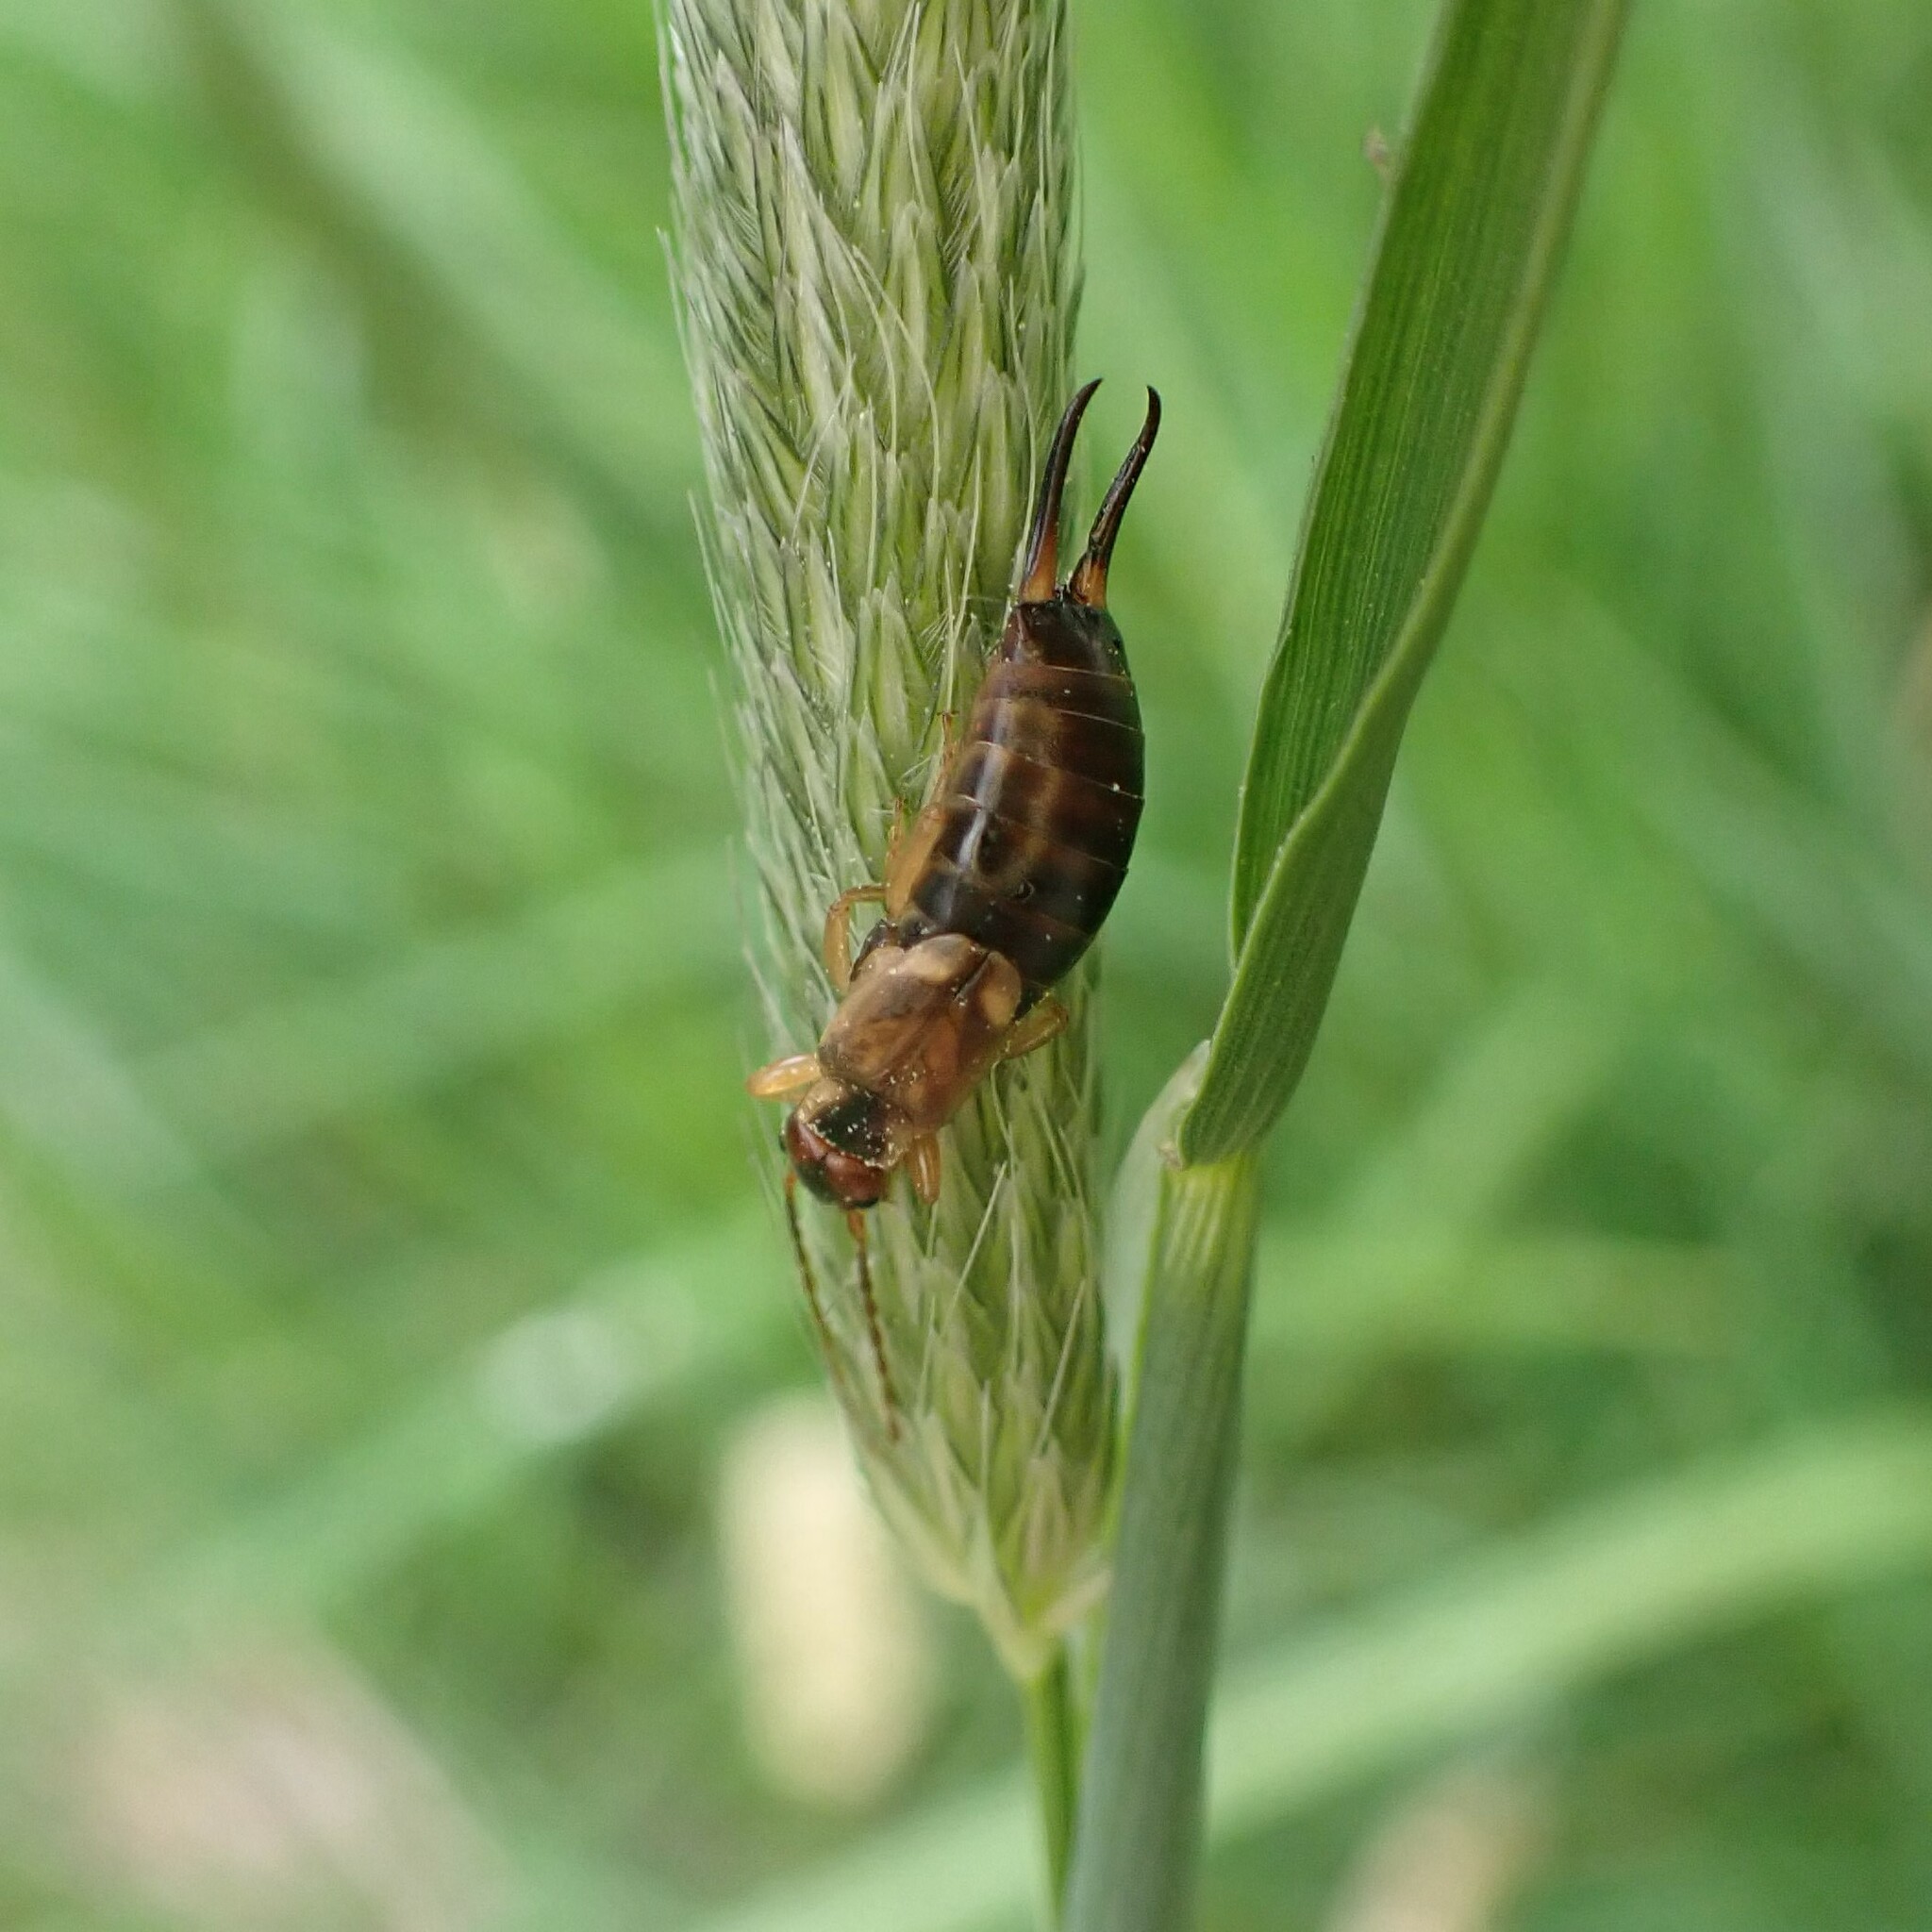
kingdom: Animalia
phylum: Arthropoda
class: Insecta
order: Dermaptera
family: Forficulidae
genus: Forficula
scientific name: Forficula
